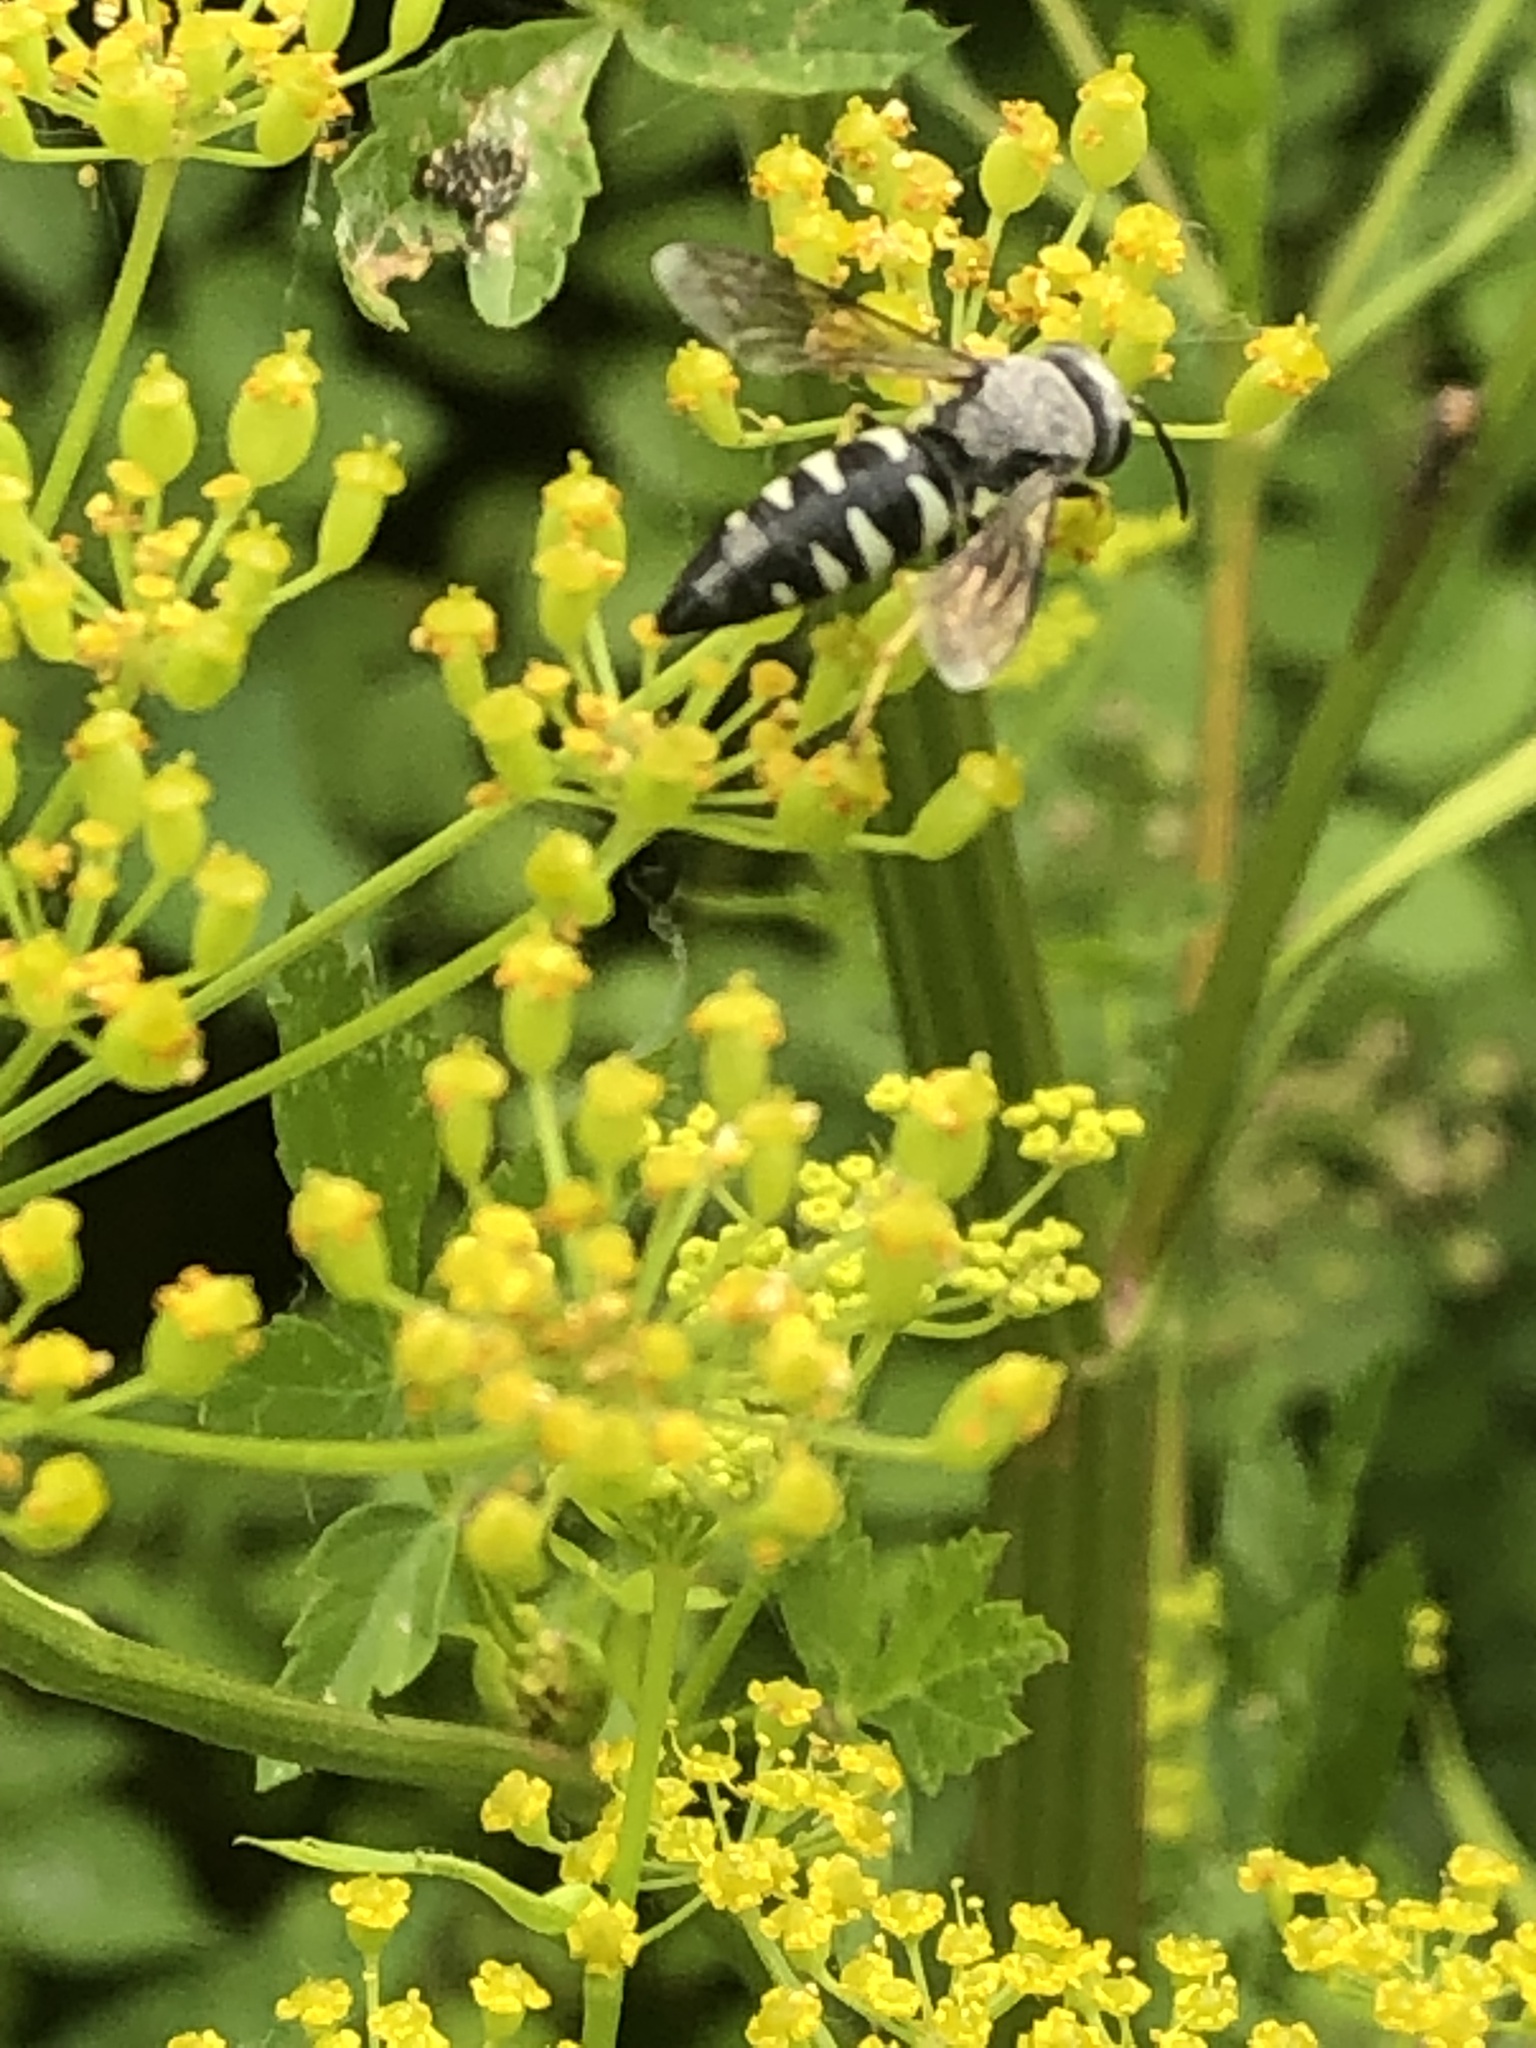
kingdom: Animalia
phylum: Arthropoda
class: Insecta
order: Hymenoptera
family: Crabronidae
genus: Bicyrtes
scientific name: Bicyrtes quadrifasciatus
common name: Four-banded stink bug hunter wasp
